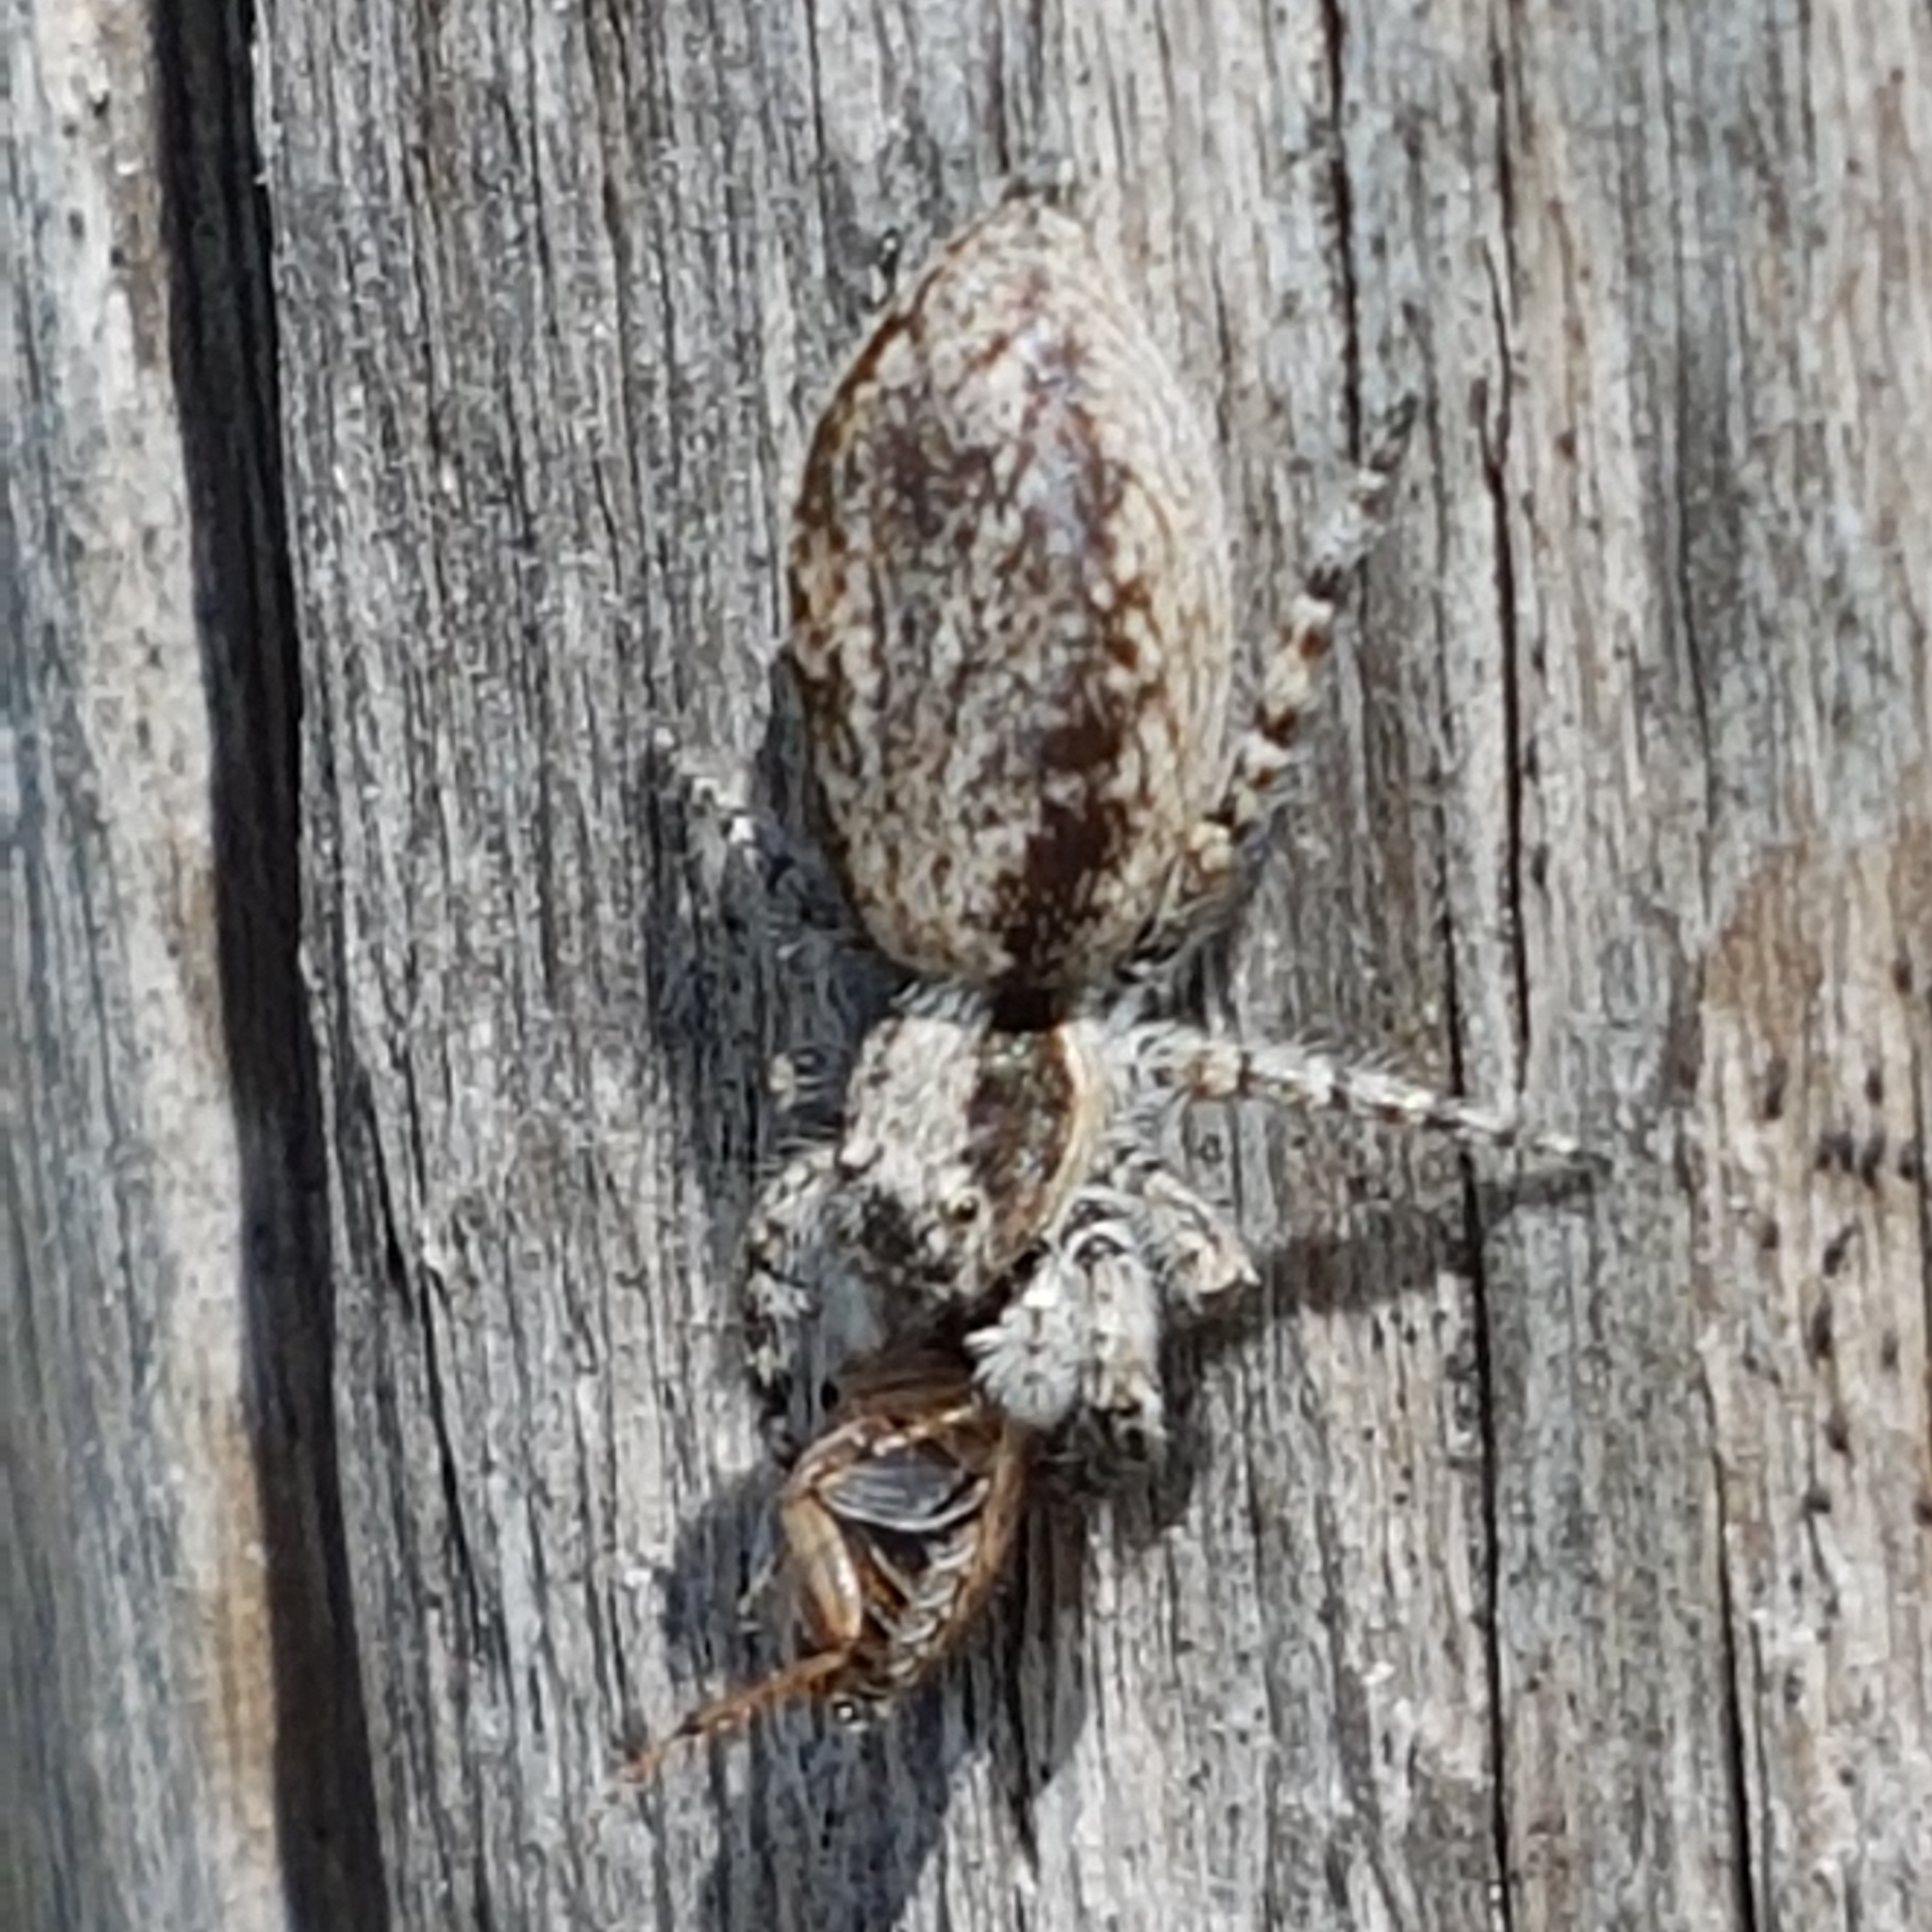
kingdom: Animalia
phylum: Arthropoda
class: Arachnida
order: Araneae
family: Salticidae
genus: Menemerus
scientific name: Menemerus taeniatus
